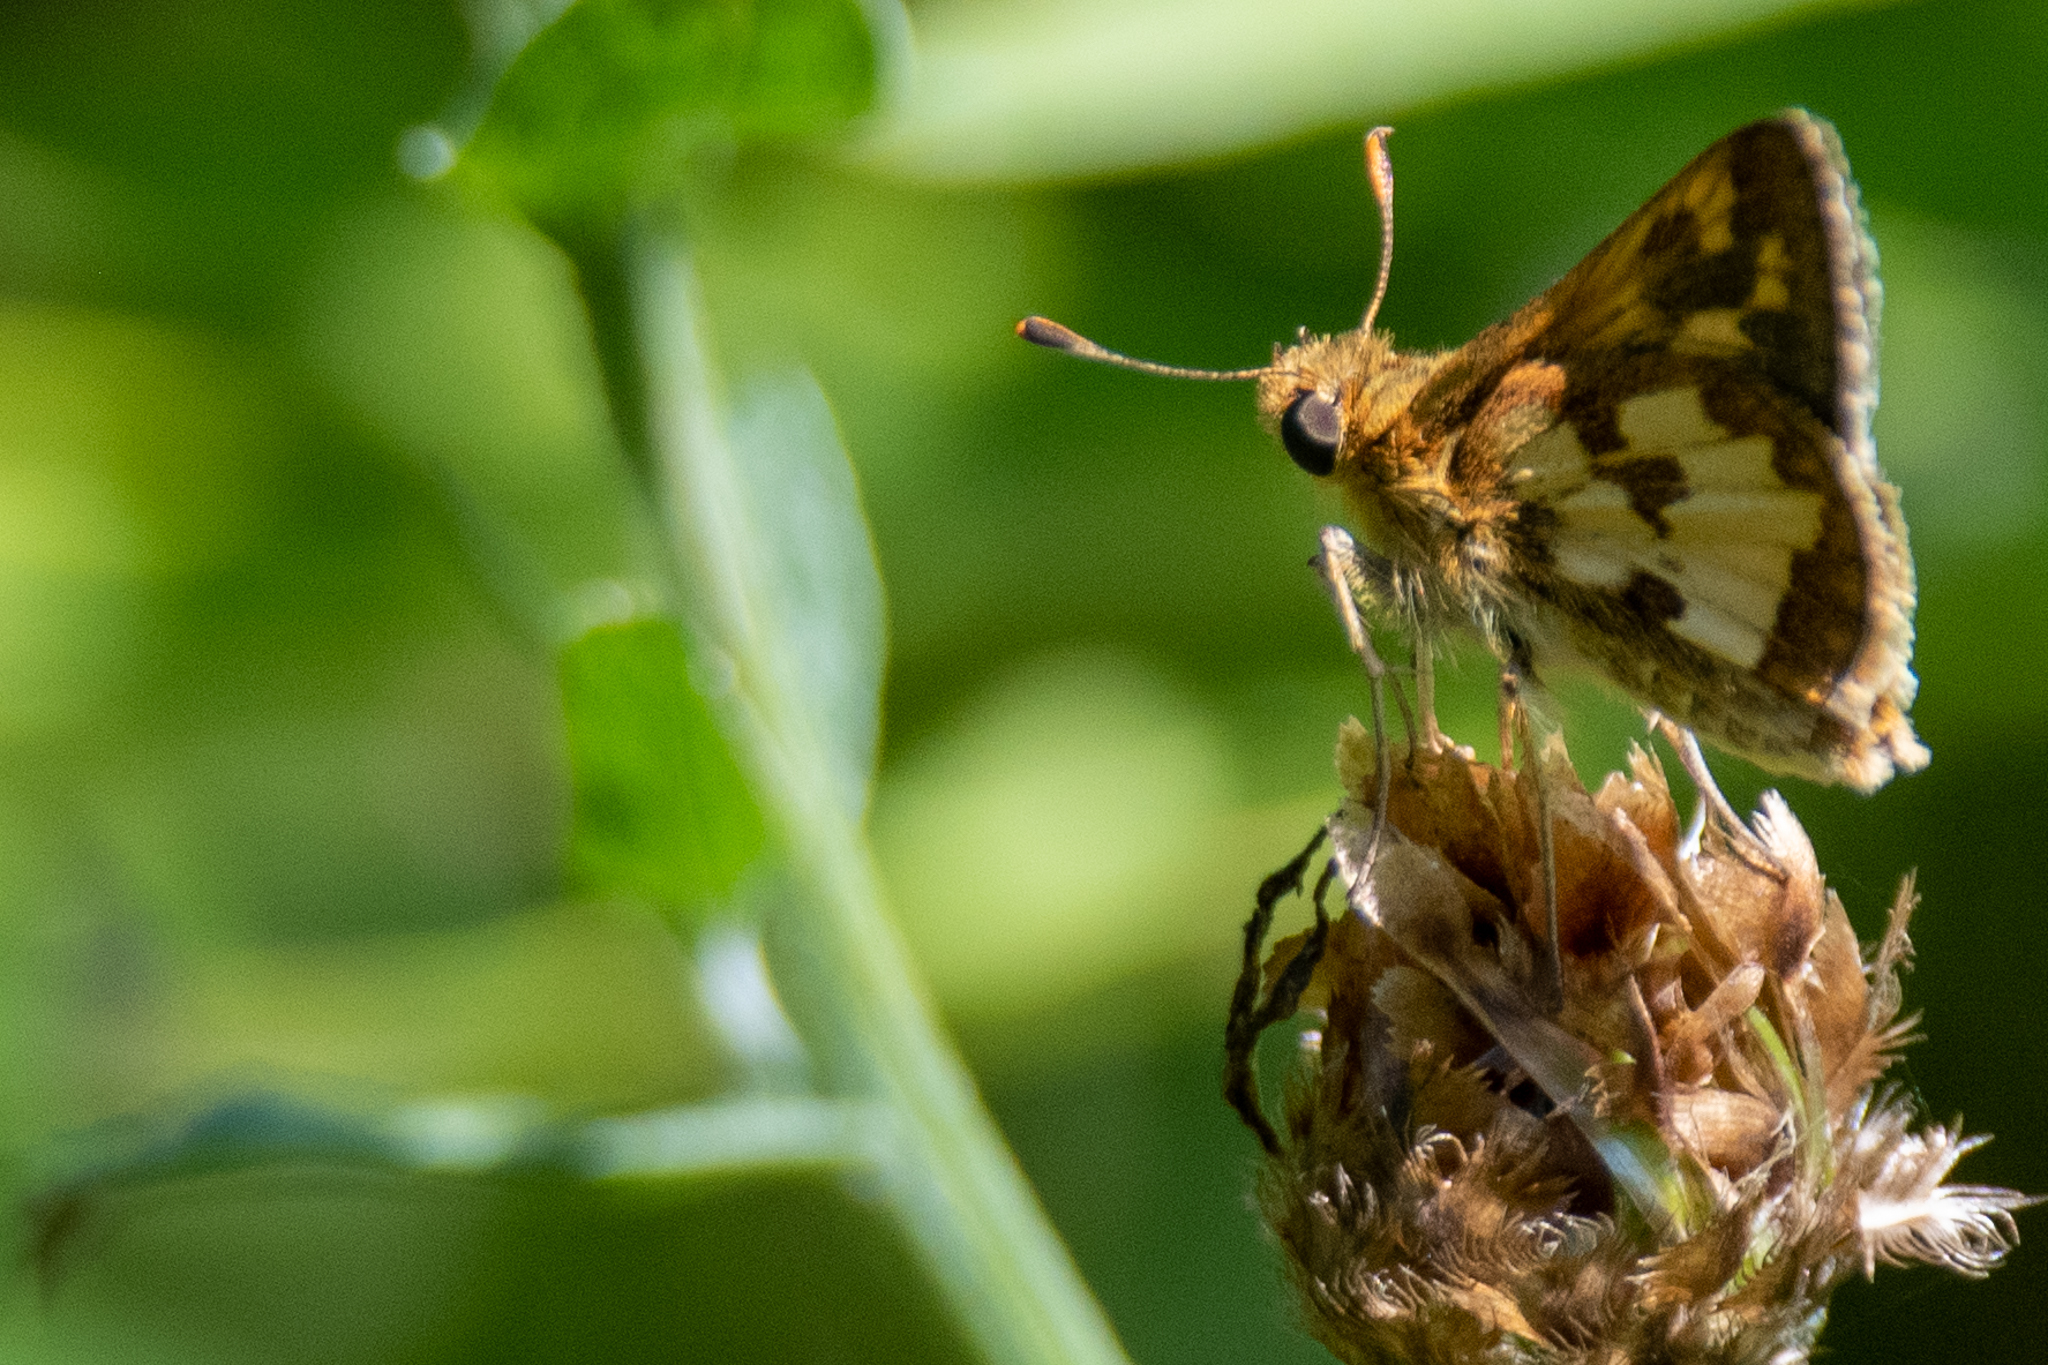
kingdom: Animalia
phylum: Arthropoda
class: Insecta
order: Lepidoptera
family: Hesperiidae
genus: Polites
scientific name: Polites coras
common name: Peck's skipper
